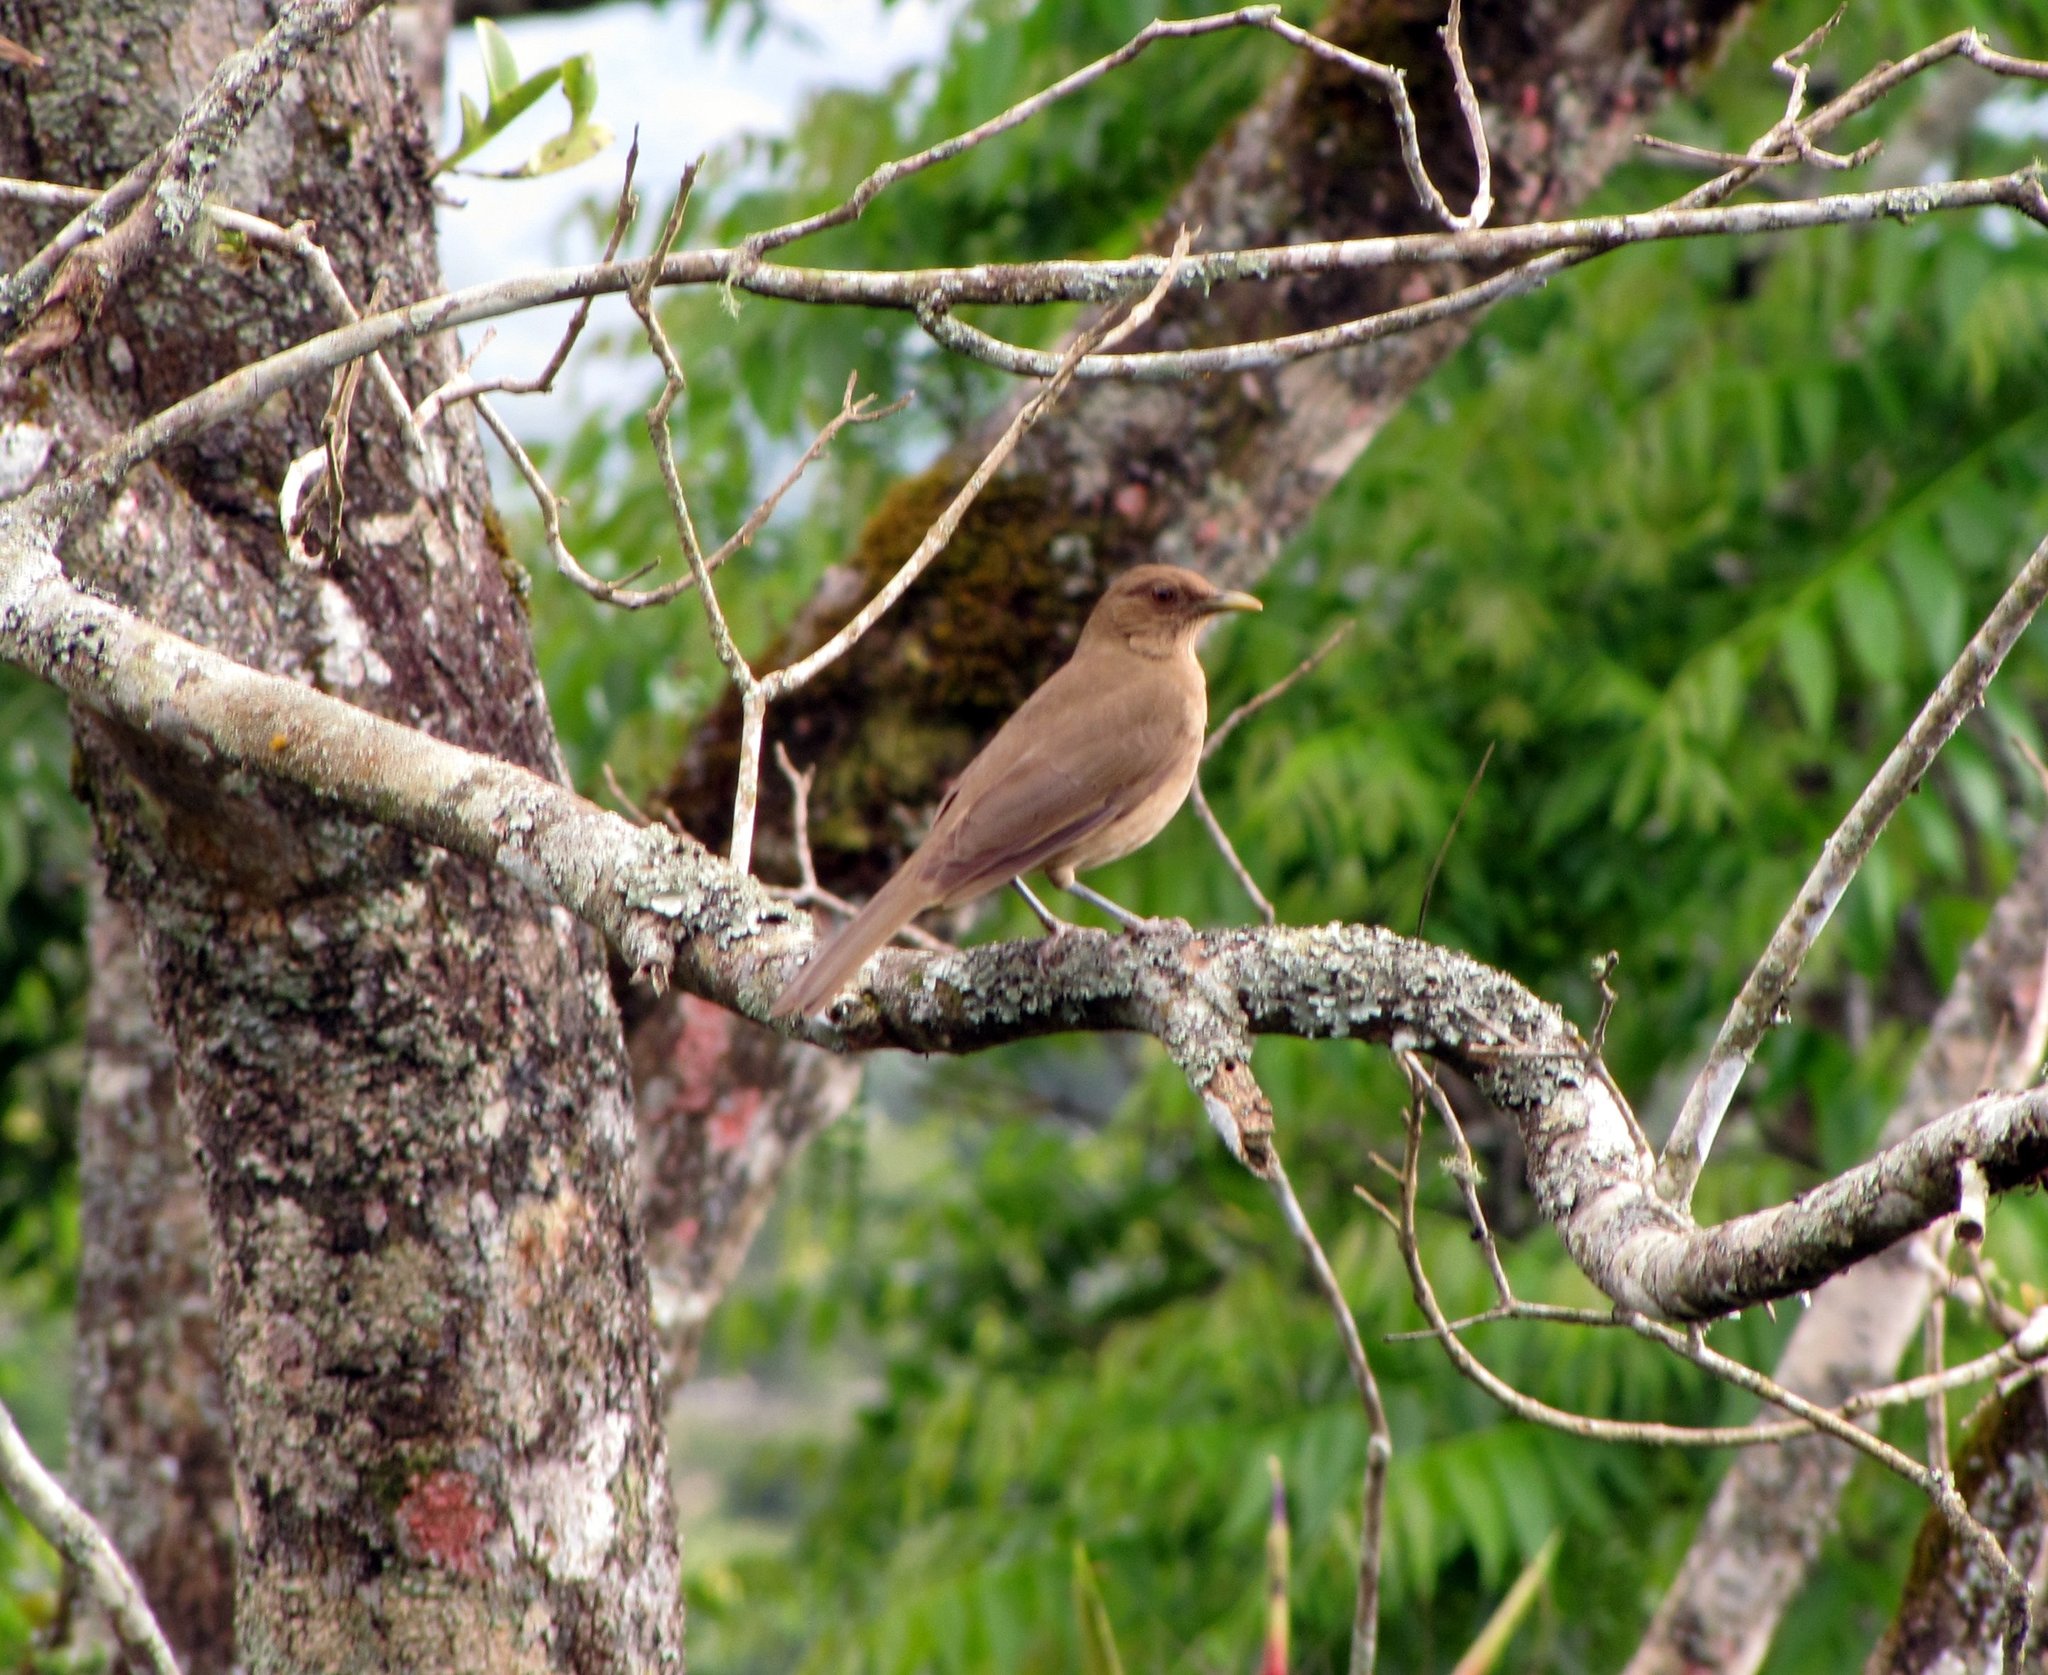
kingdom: Animalia
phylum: Chordata
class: Aves
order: Passeriformes
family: Turdidae
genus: Turdus
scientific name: Turdus grayi
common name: Clay-colored thrush
